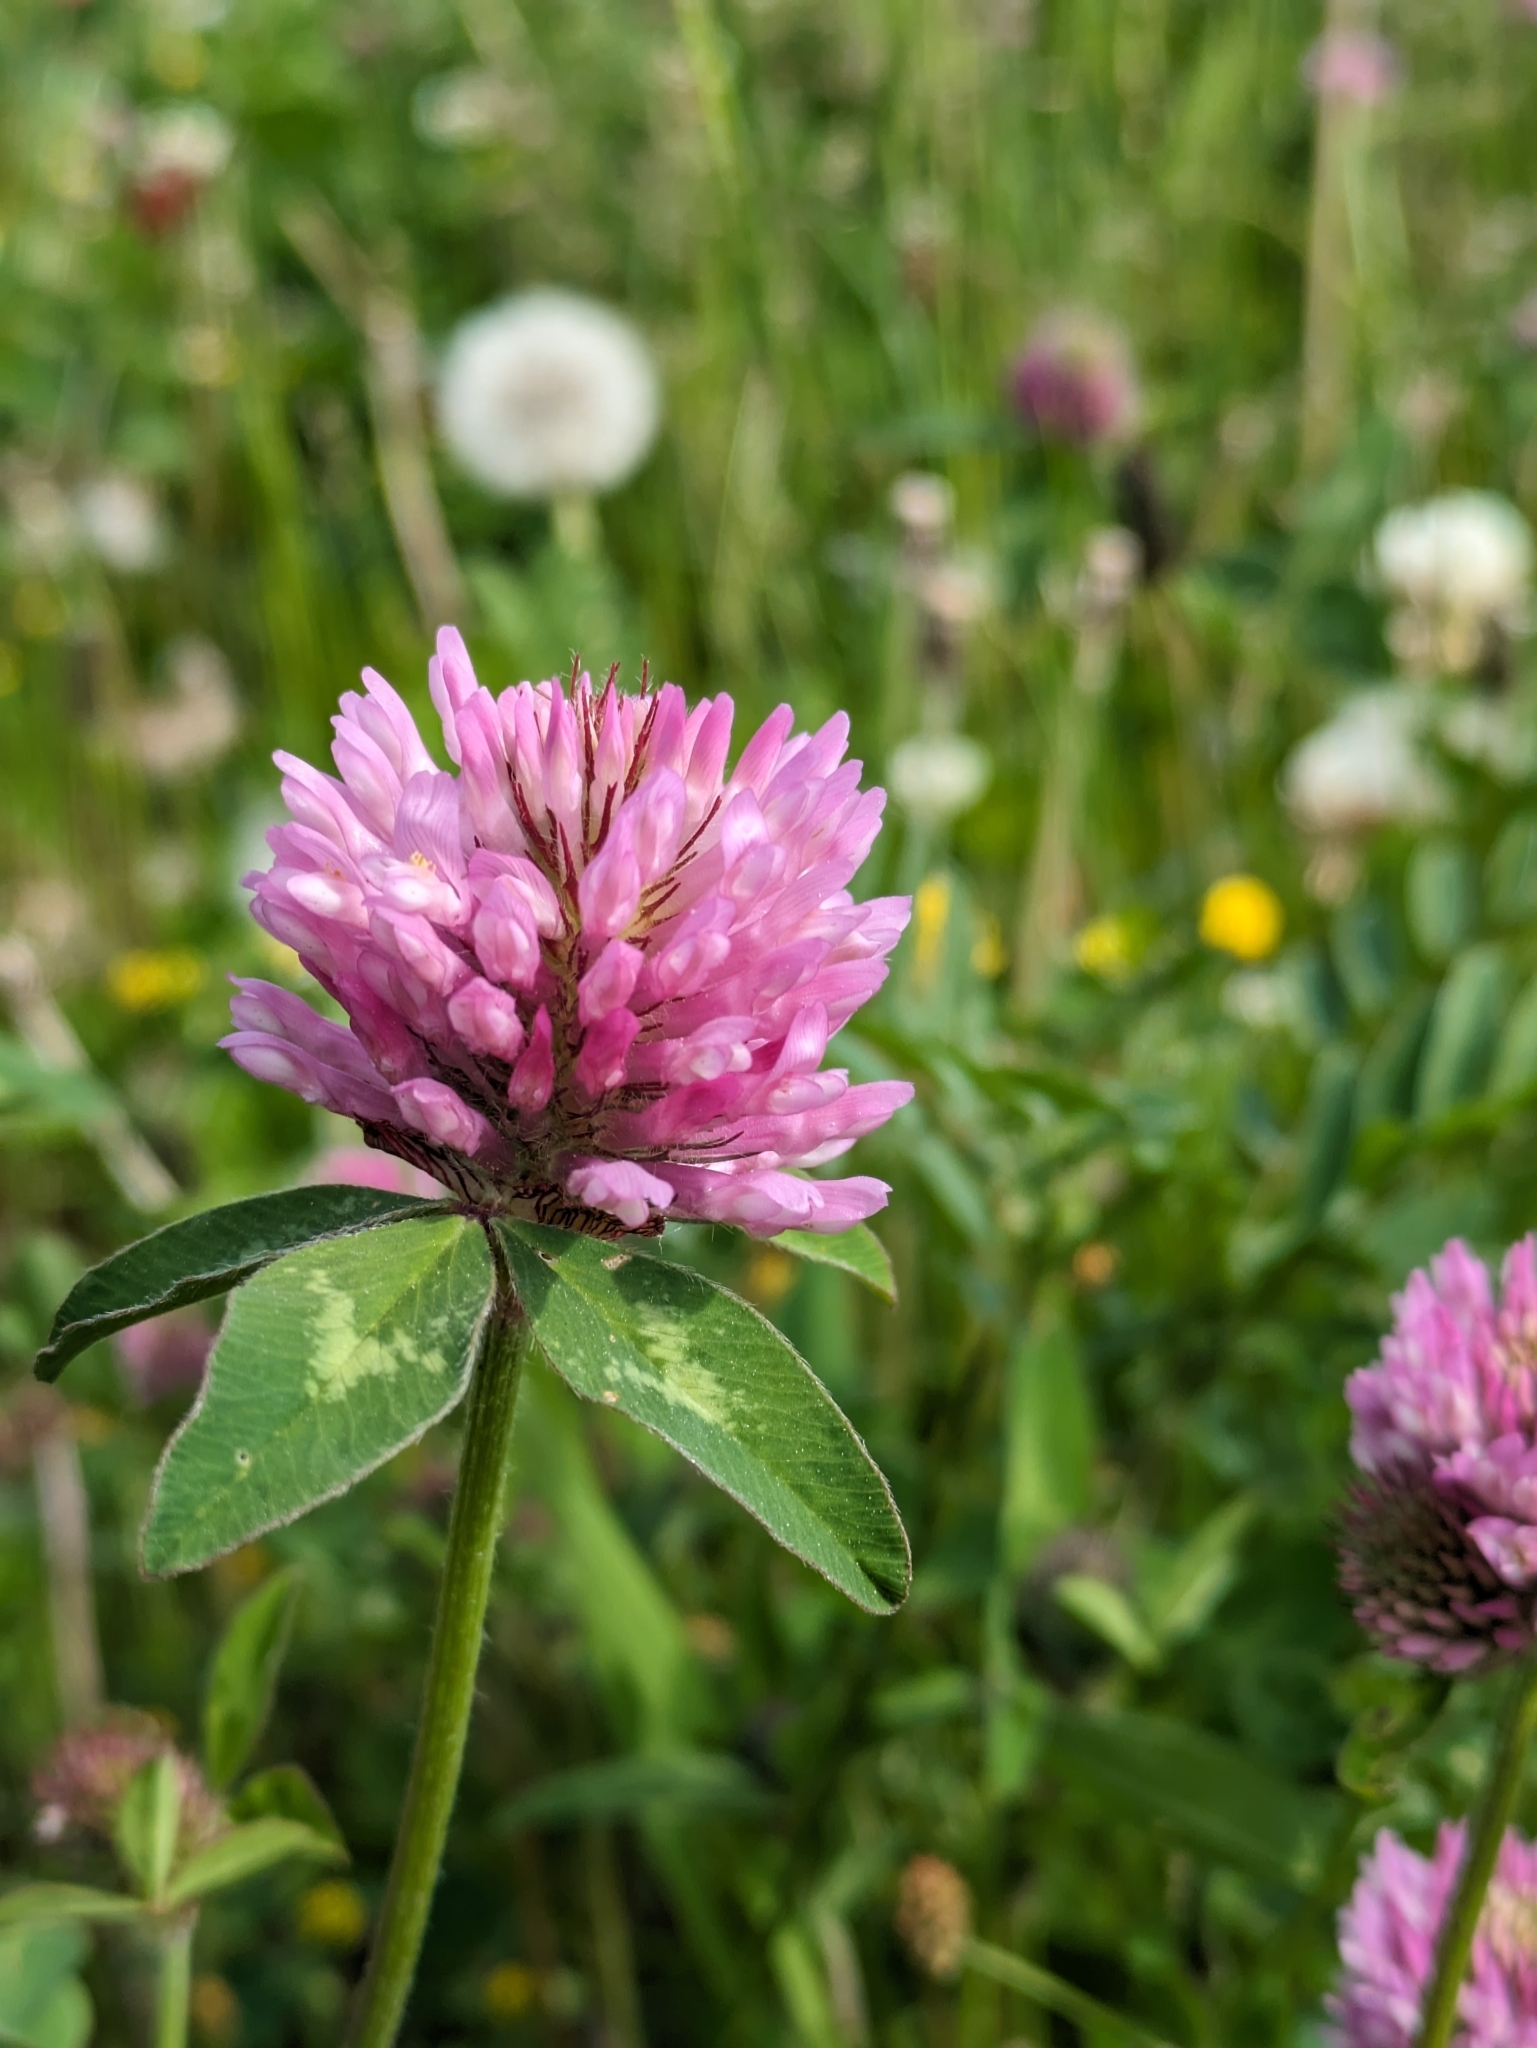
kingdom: Plantae
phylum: Tracheophyta
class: Magnoliopsida
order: Fabales
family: Fabaceae
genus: Trifolium
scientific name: Trifolium pratense
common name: Red clover
